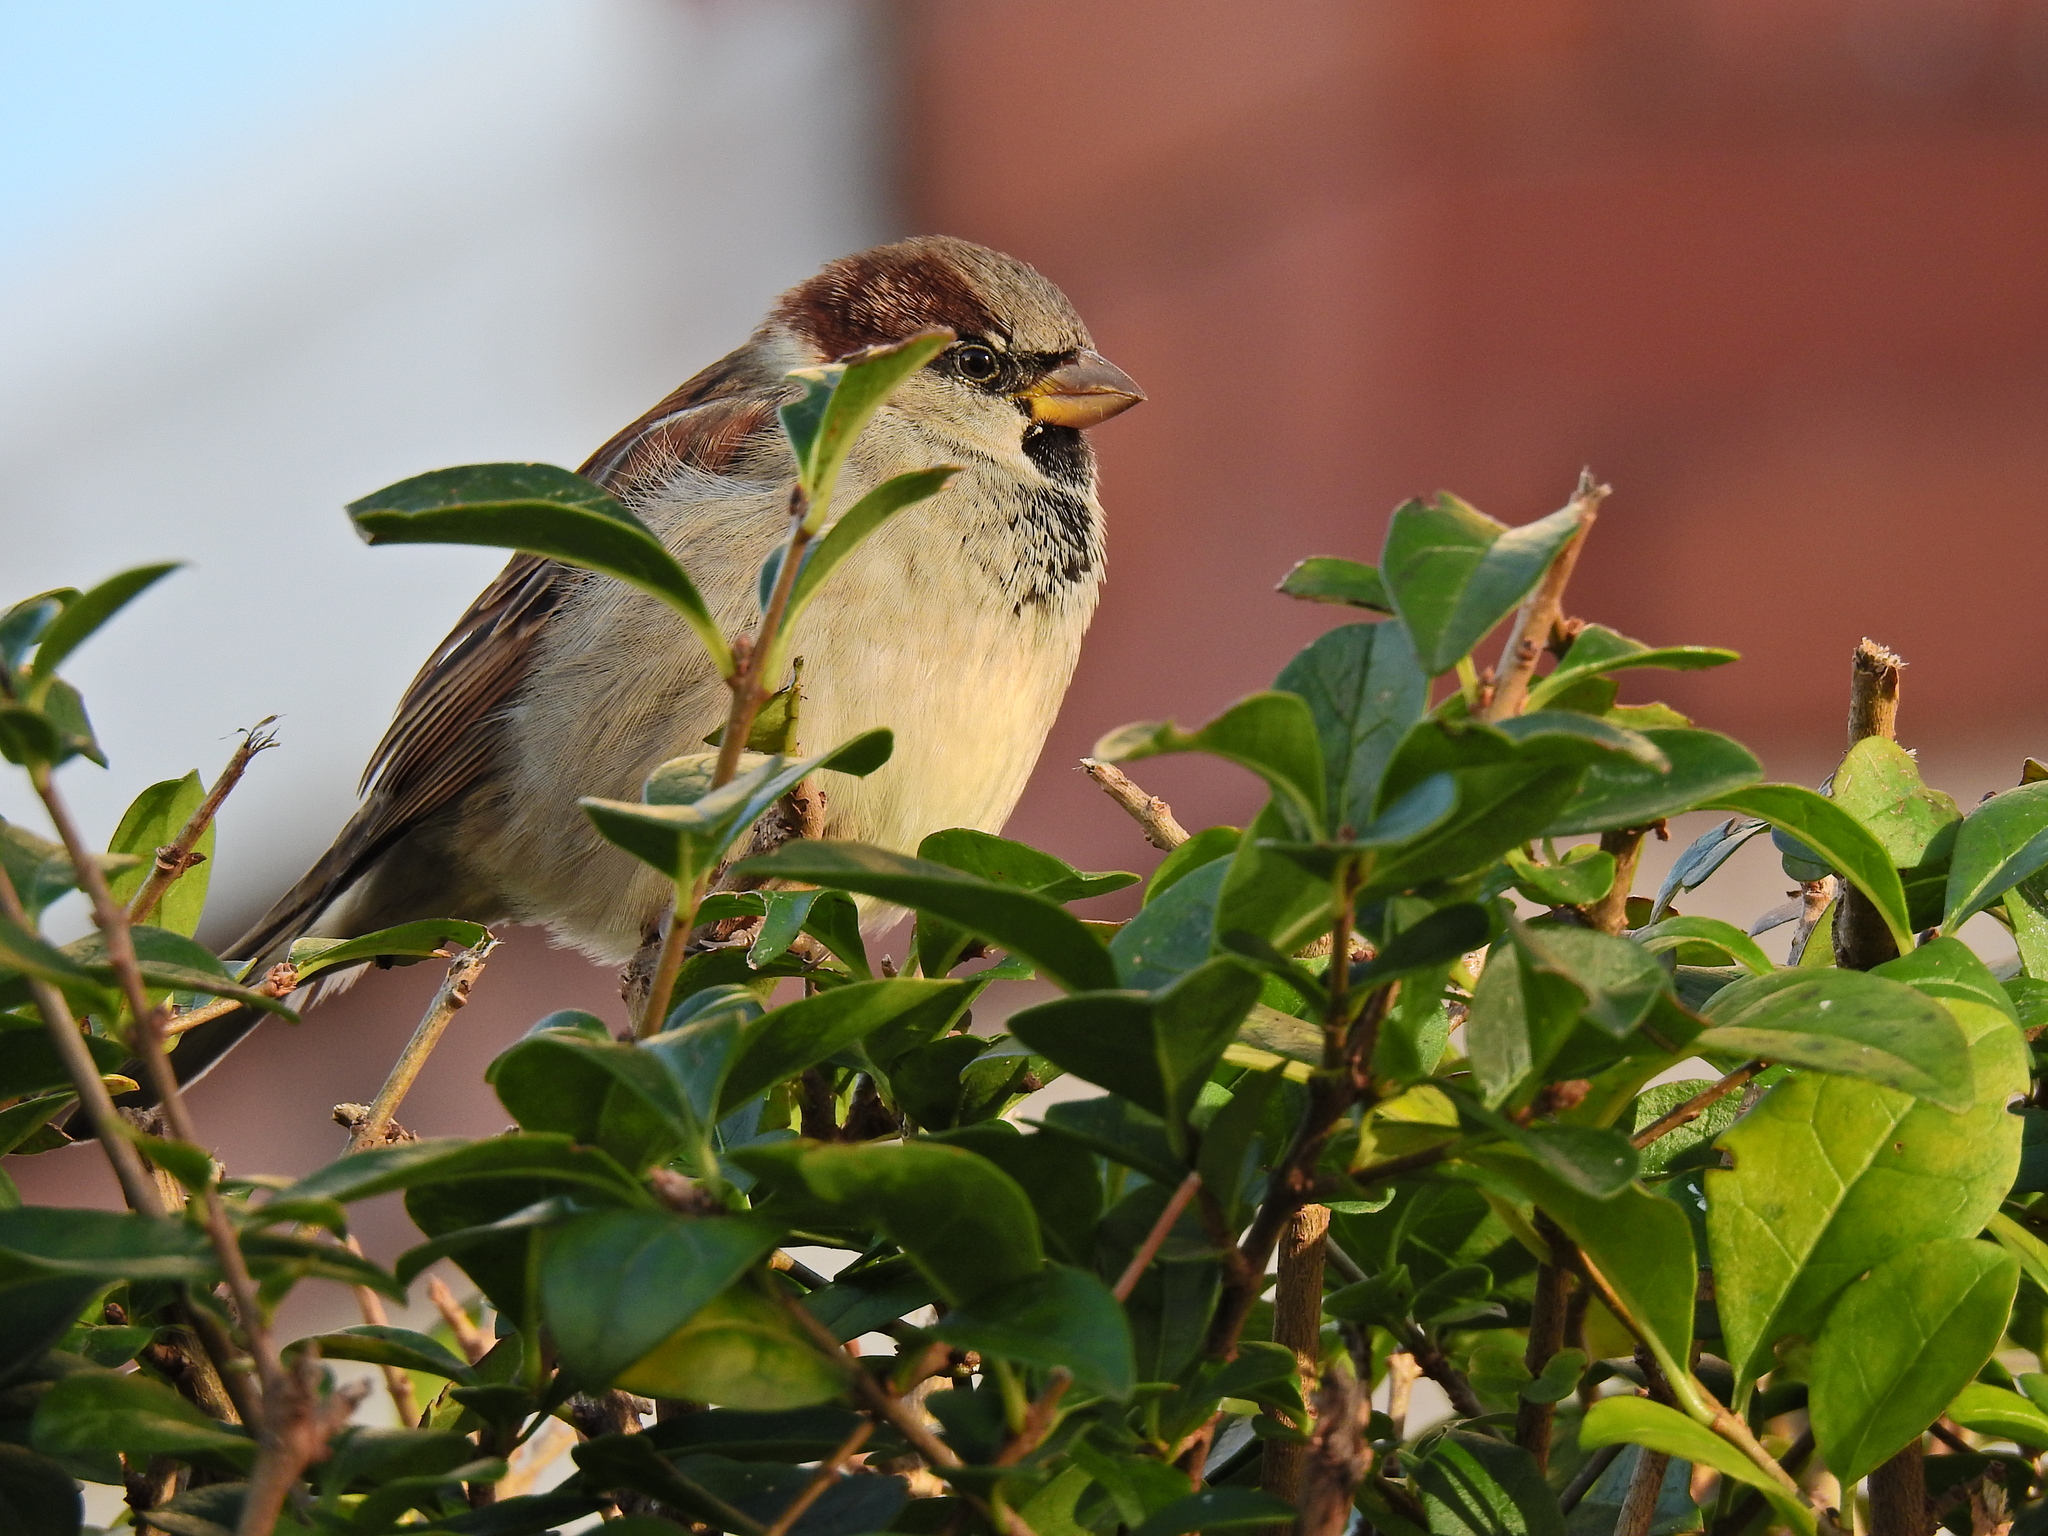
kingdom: Animalia
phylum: Chordata
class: Aves
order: Passeriformes
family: Passeridae
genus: Passer
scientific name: Passer domesticus
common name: House sparrow
